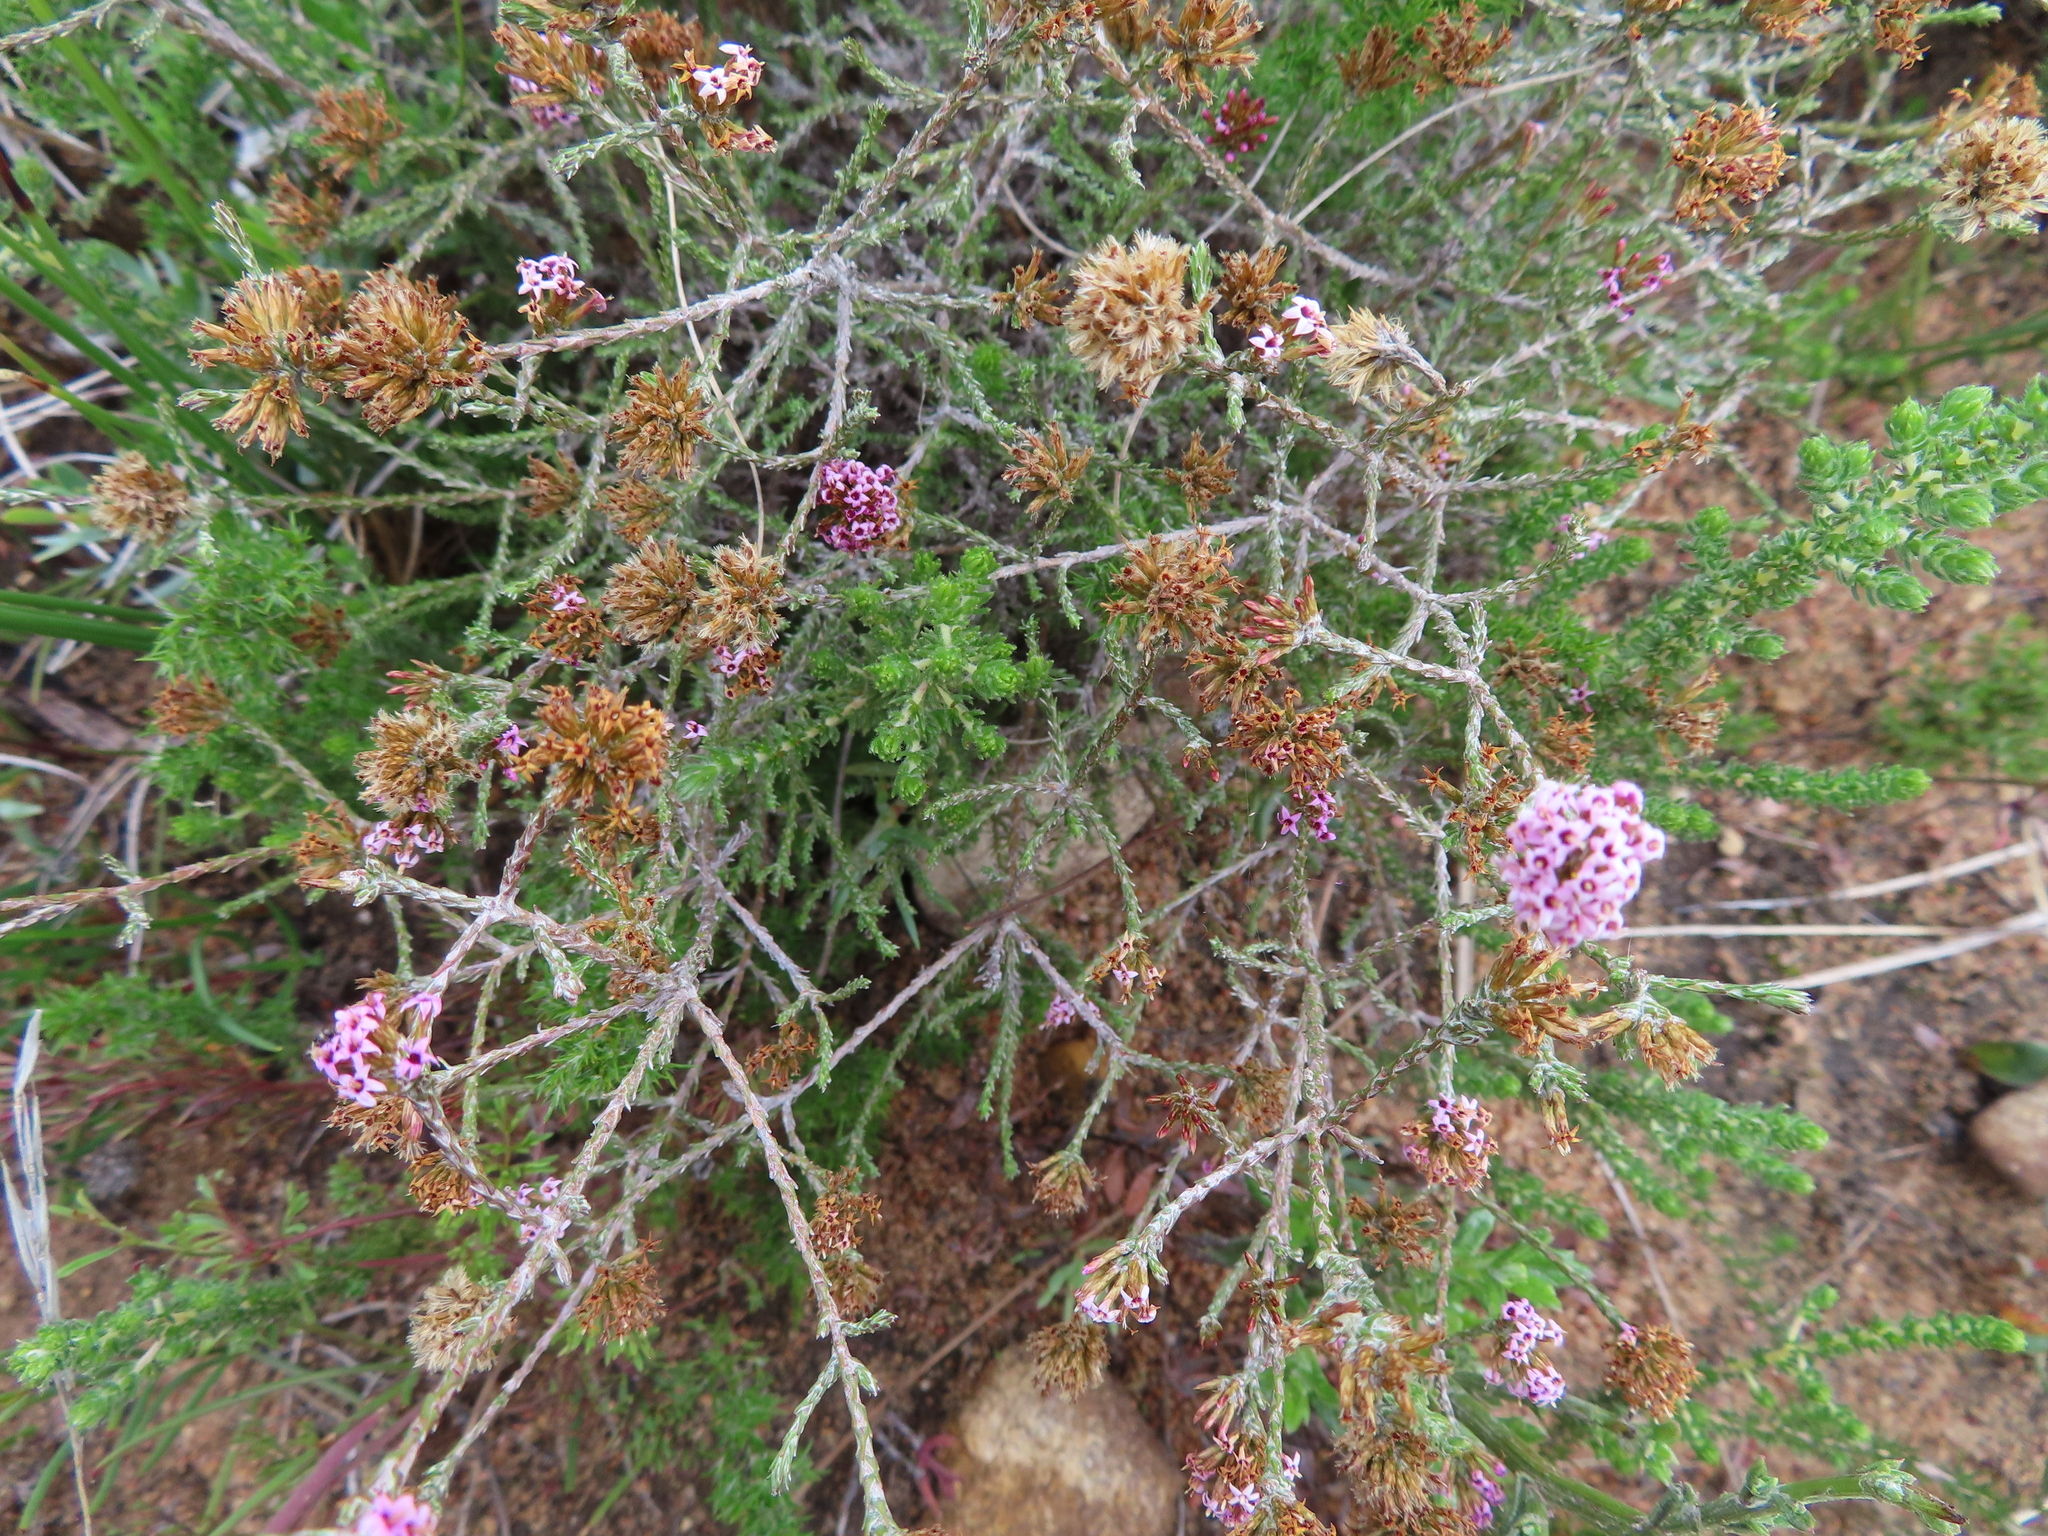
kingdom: Plantae
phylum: Tracheophyta
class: Magnoliopsida
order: Asterales
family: Asteraceae
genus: Stoebe
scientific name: Stoebe fusca
